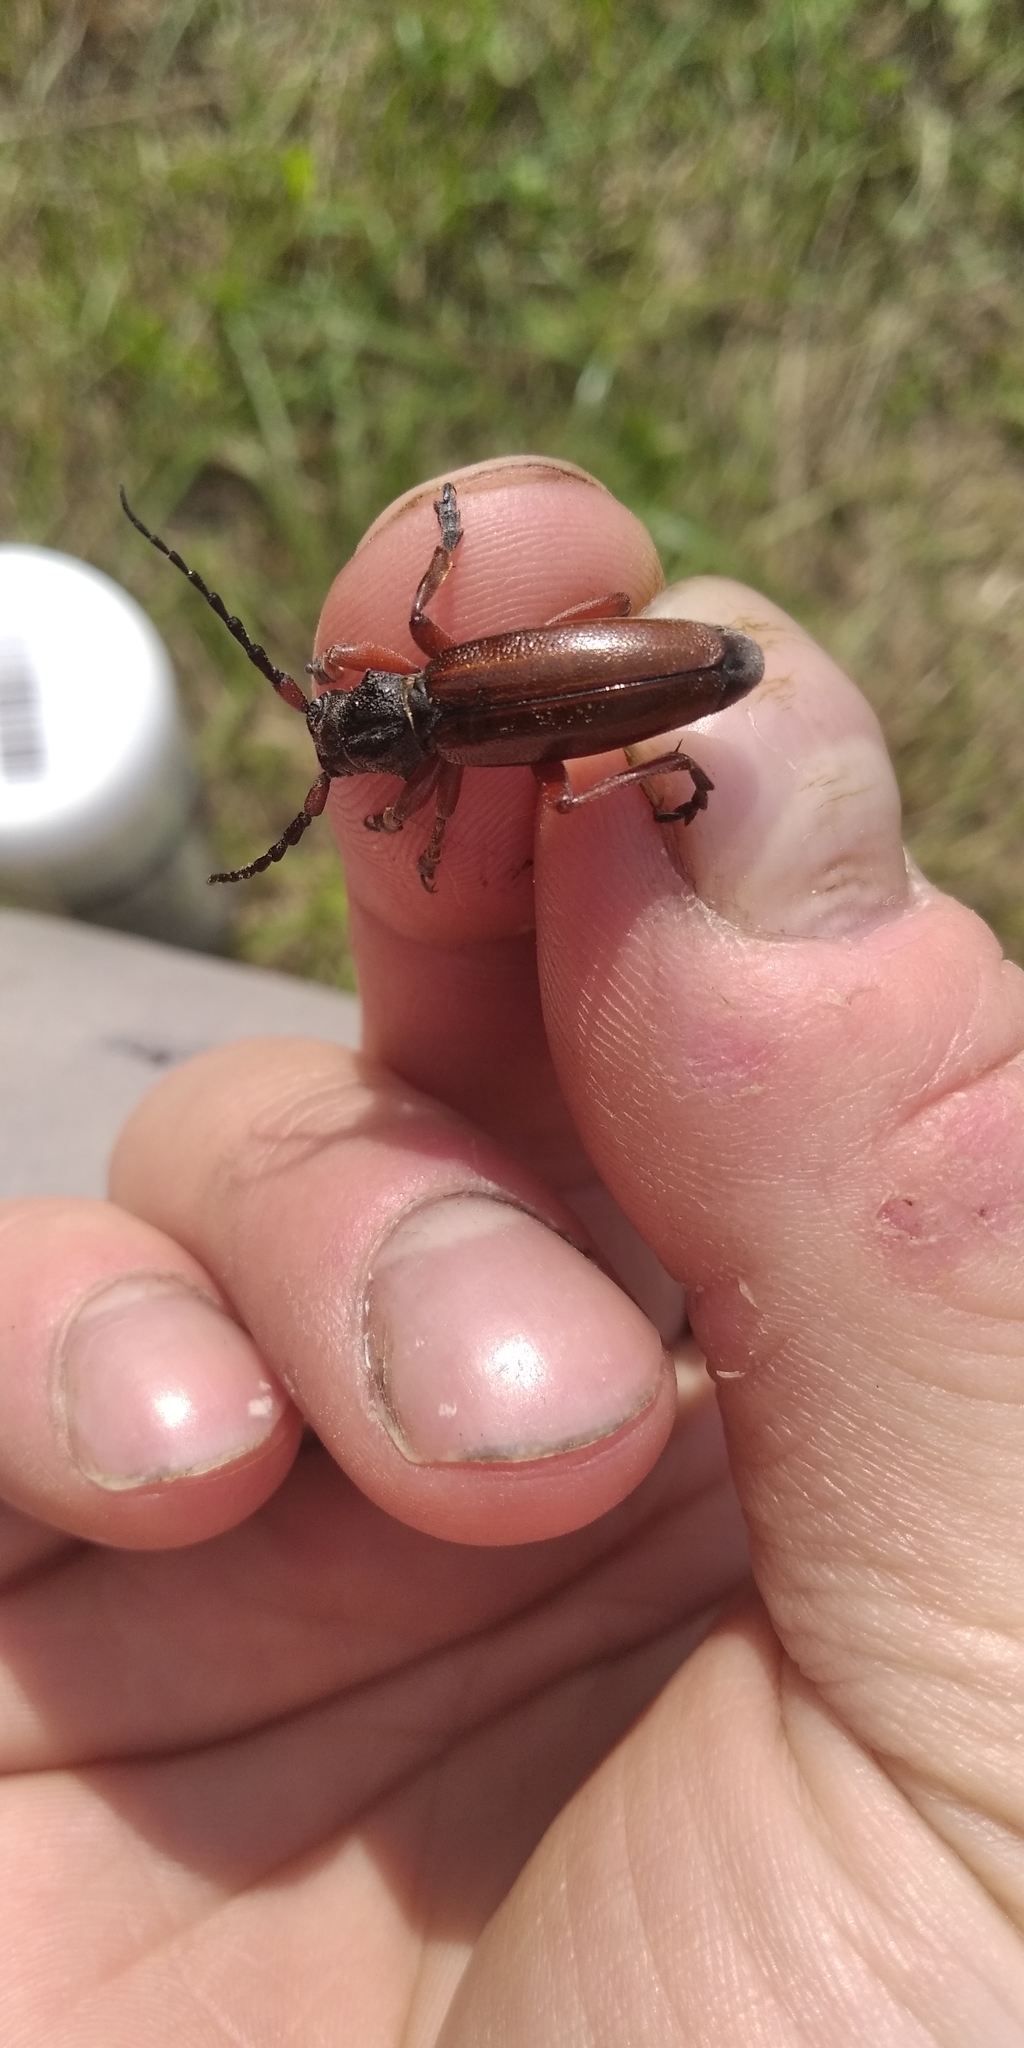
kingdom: Animalia
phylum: Arthropoda
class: Insecta
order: Coleoptera
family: Cerambycidae
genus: Dorcadion
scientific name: Dorcadion fulvum
